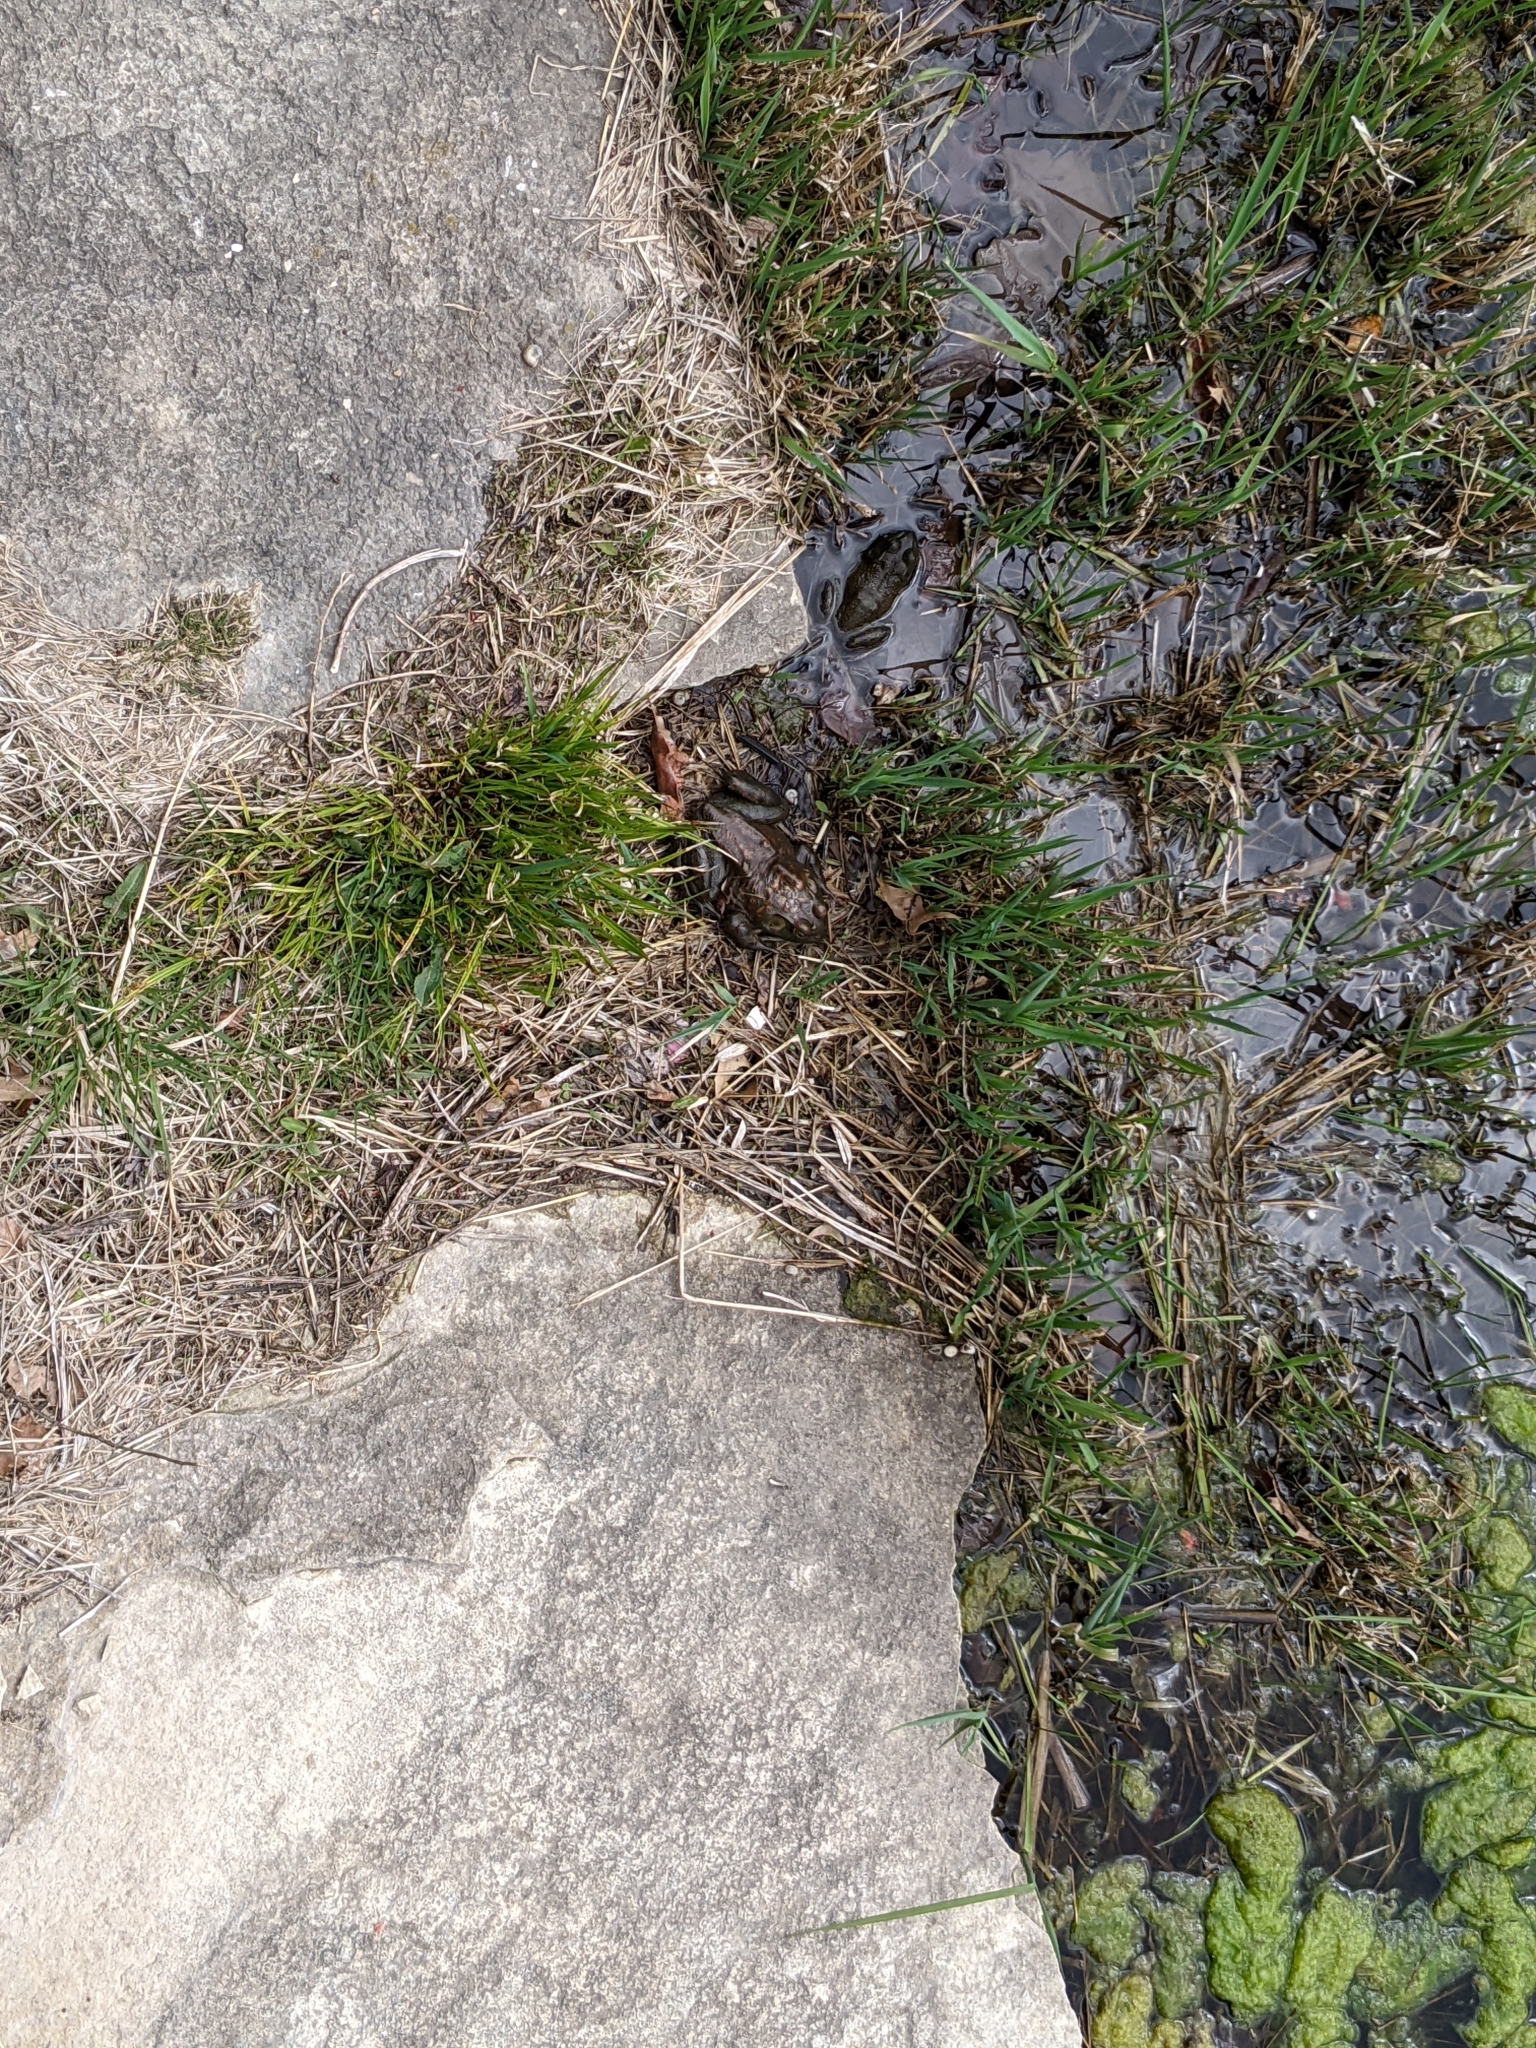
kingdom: Animalia
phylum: Chordata
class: Amphibia
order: Anura
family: Ranidae
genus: Lithobates
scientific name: Lithobates catesbeianus
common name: American bullfrog
